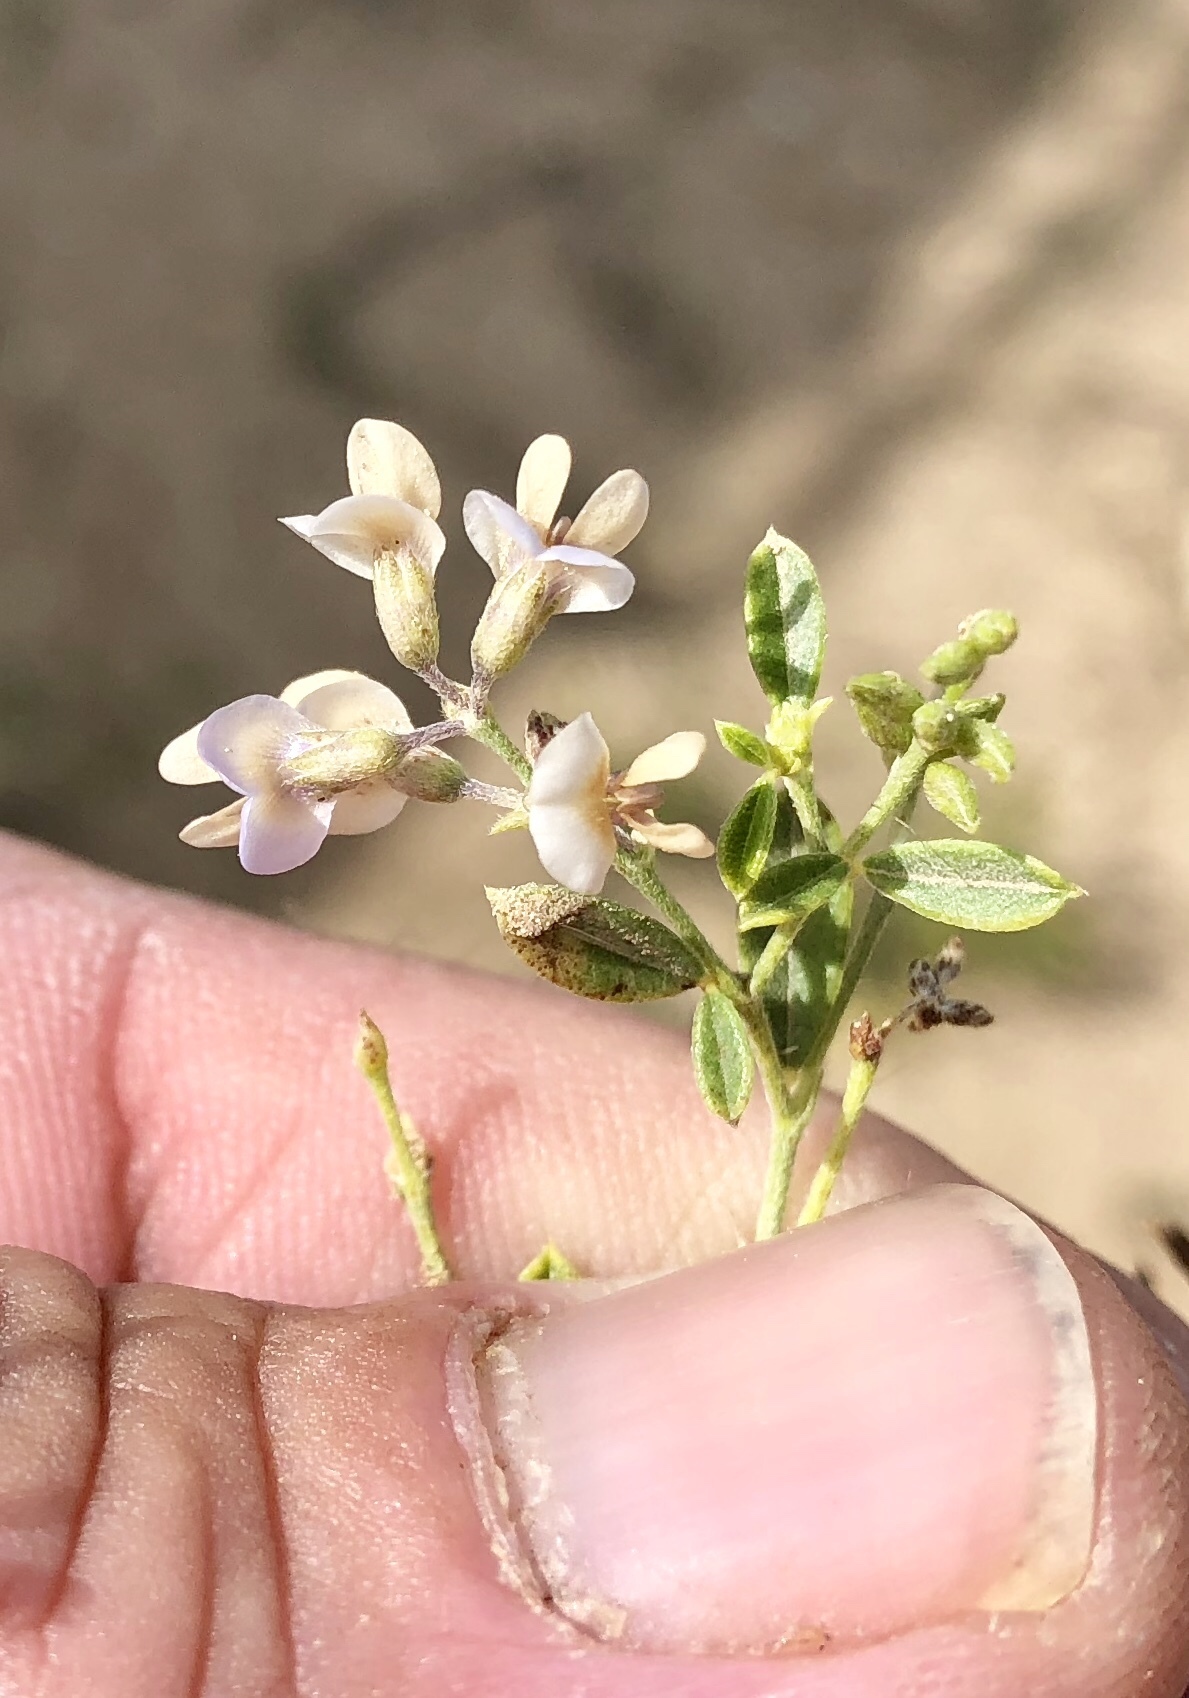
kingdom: Plantae
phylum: Tracheophyta
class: Magnoliopsida
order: Fabales
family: Fabaceae
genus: Pediomelum
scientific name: Pediomelum tenuiflorum
